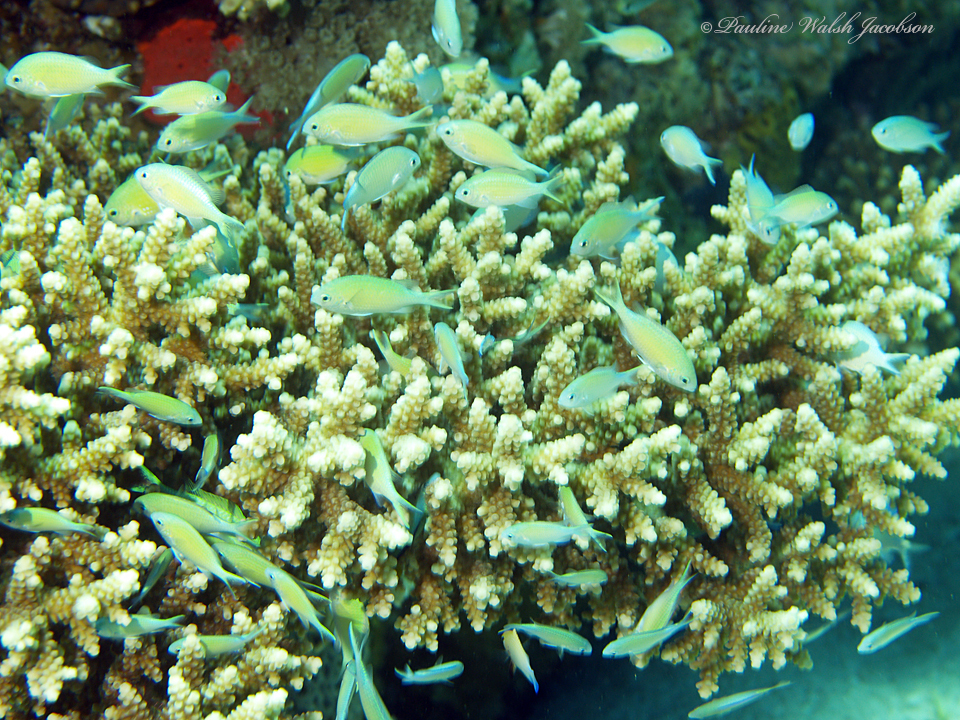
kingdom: Animalia
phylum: Chordata
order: Perciformes
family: Pomacentridae
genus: Chromis
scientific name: Chromis viridis
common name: Blue-green chromis
